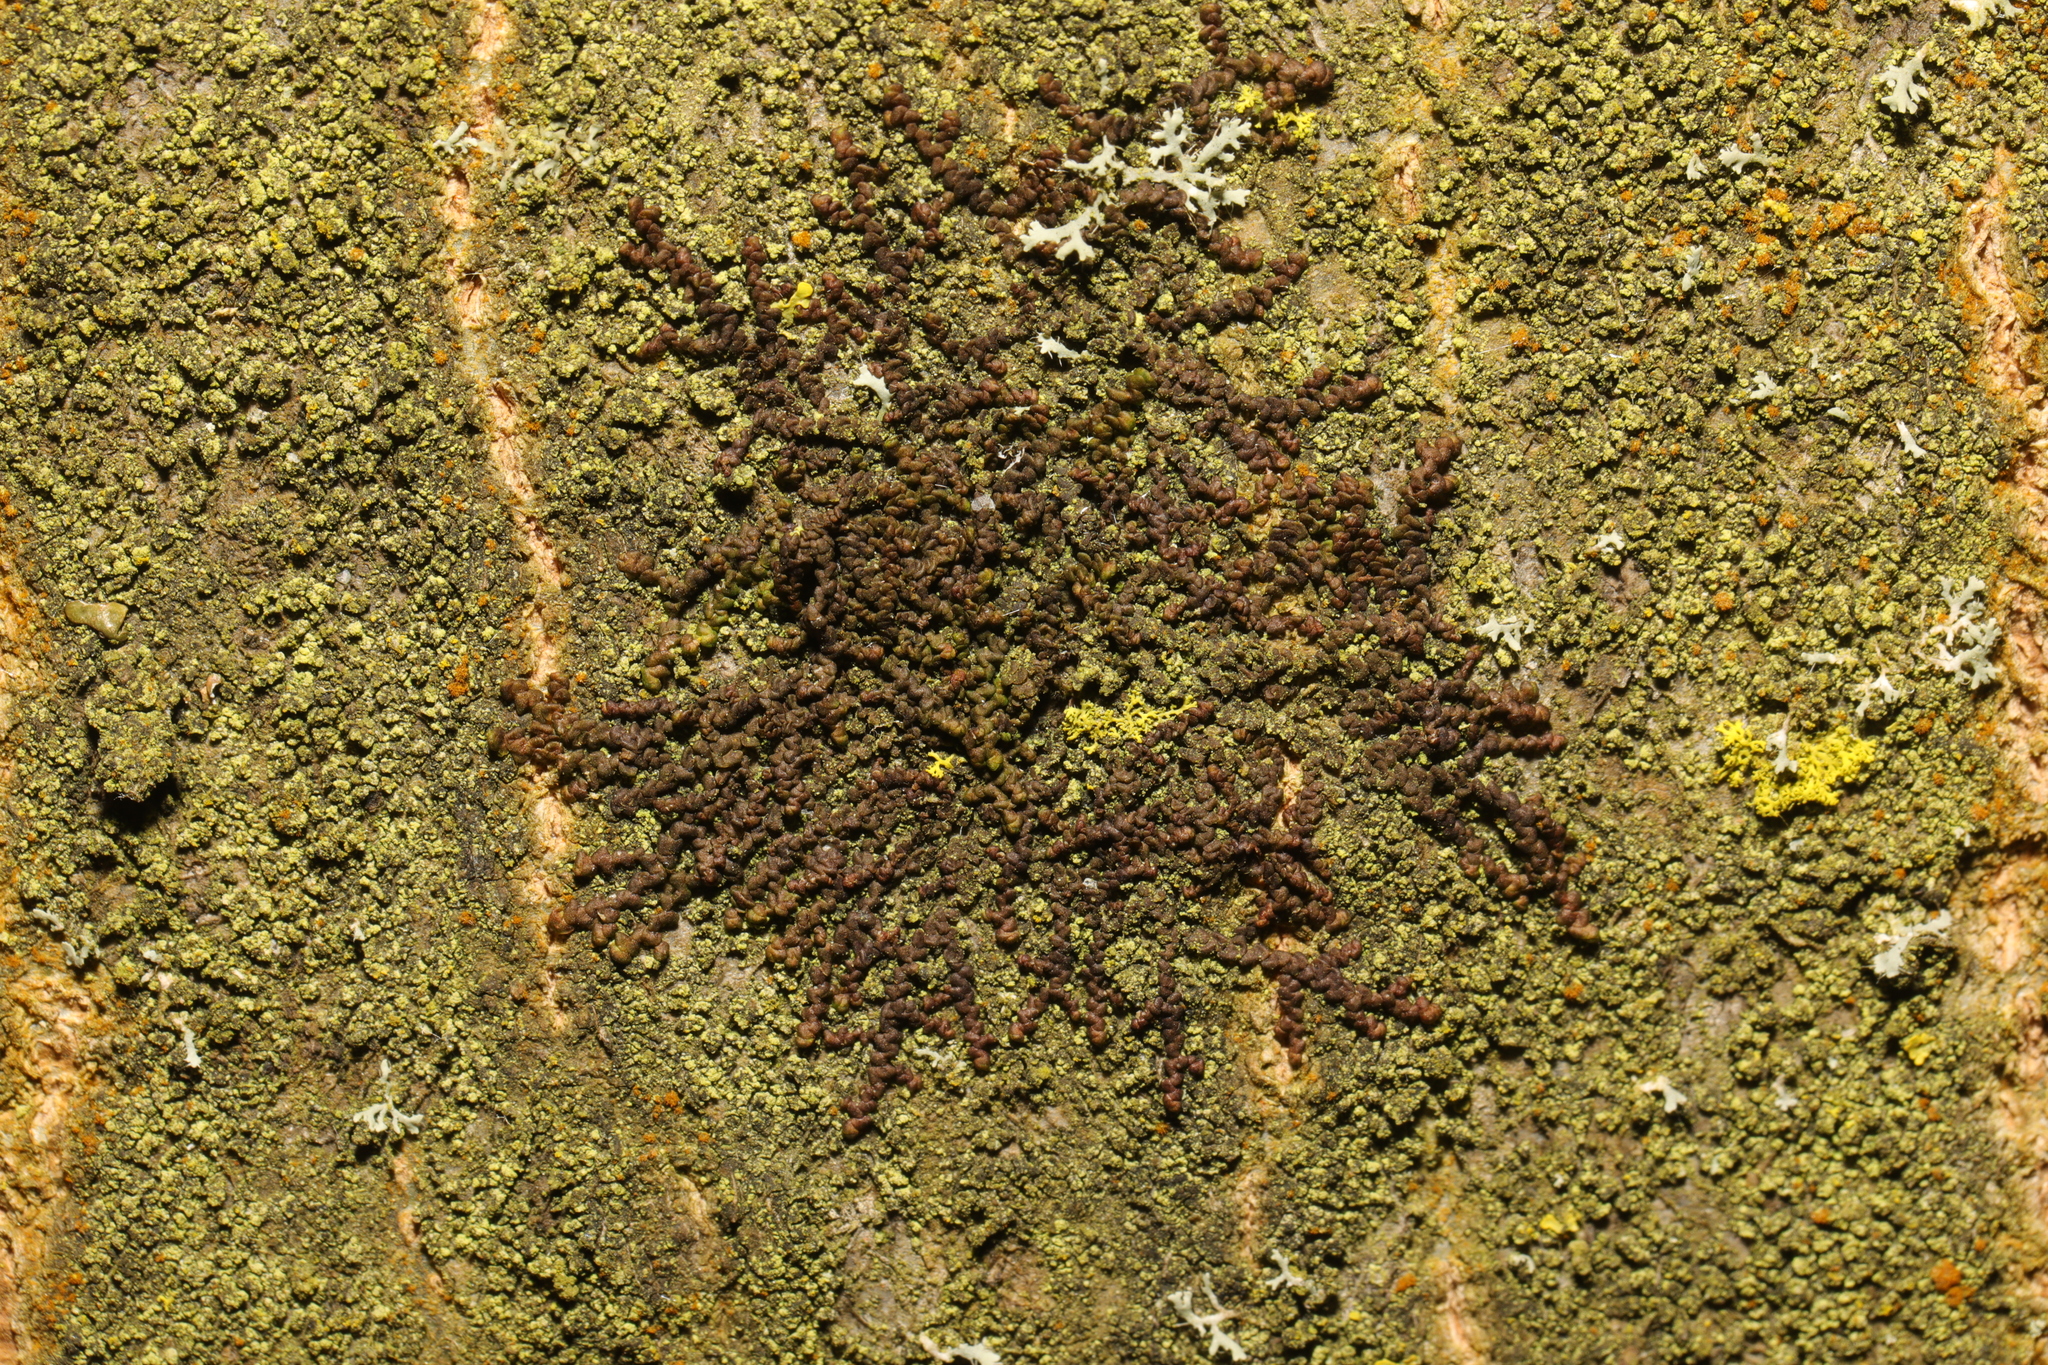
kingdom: Plantae
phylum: Marchantiophyta
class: Jungermanniopsida
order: Porellales
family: Frullaniaceae
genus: Frullania
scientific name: Frullania dilatata
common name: Dilated scalewort
